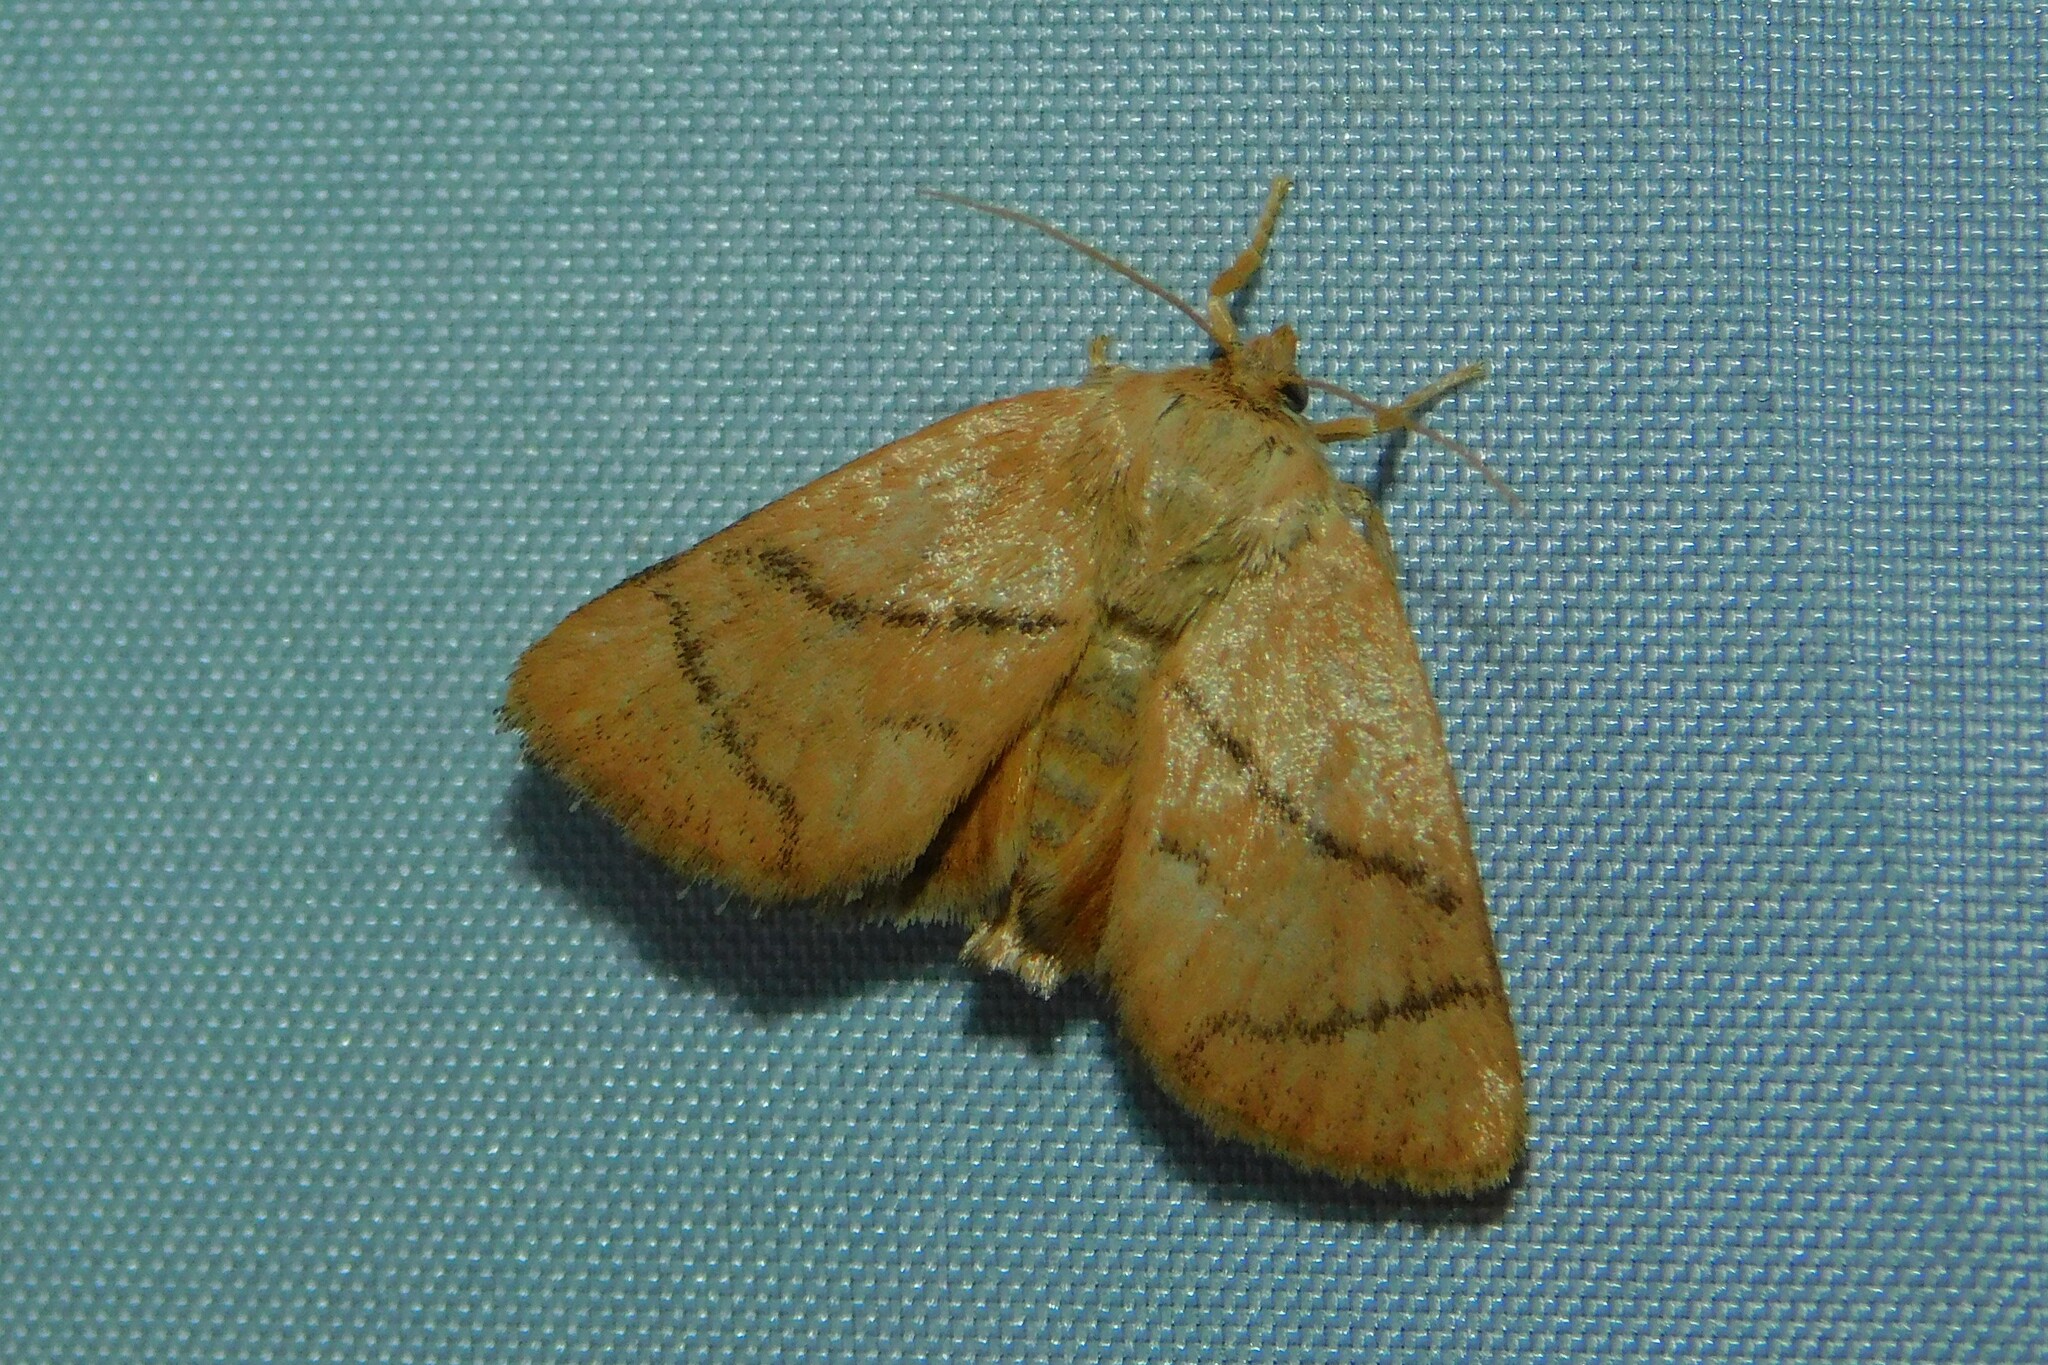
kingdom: Animalia
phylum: Arthropoda
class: Insecta
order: Lepidoptera
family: Limacodidae
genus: Apoda
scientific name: Apoda limacodes
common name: Festoon
